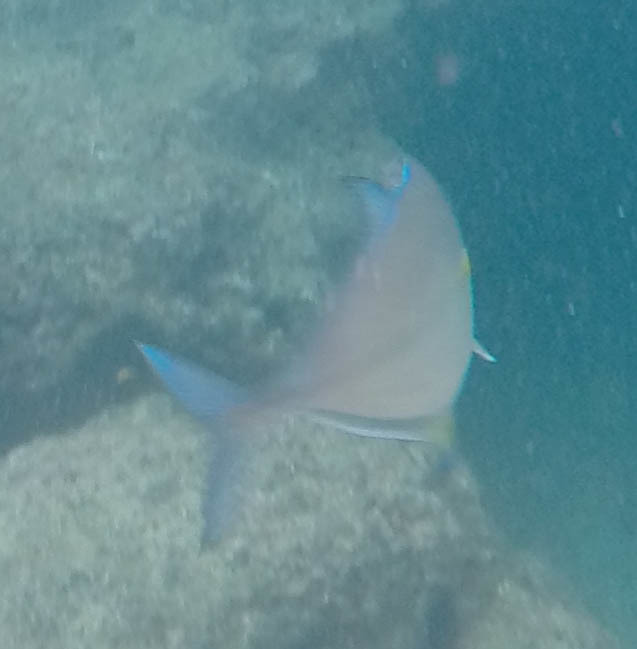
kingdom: Animalia
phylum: Chordata
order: Perciformes
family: Carangidae
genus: Caranx
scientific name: Caranx melampygus
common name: Bluefin trevally
